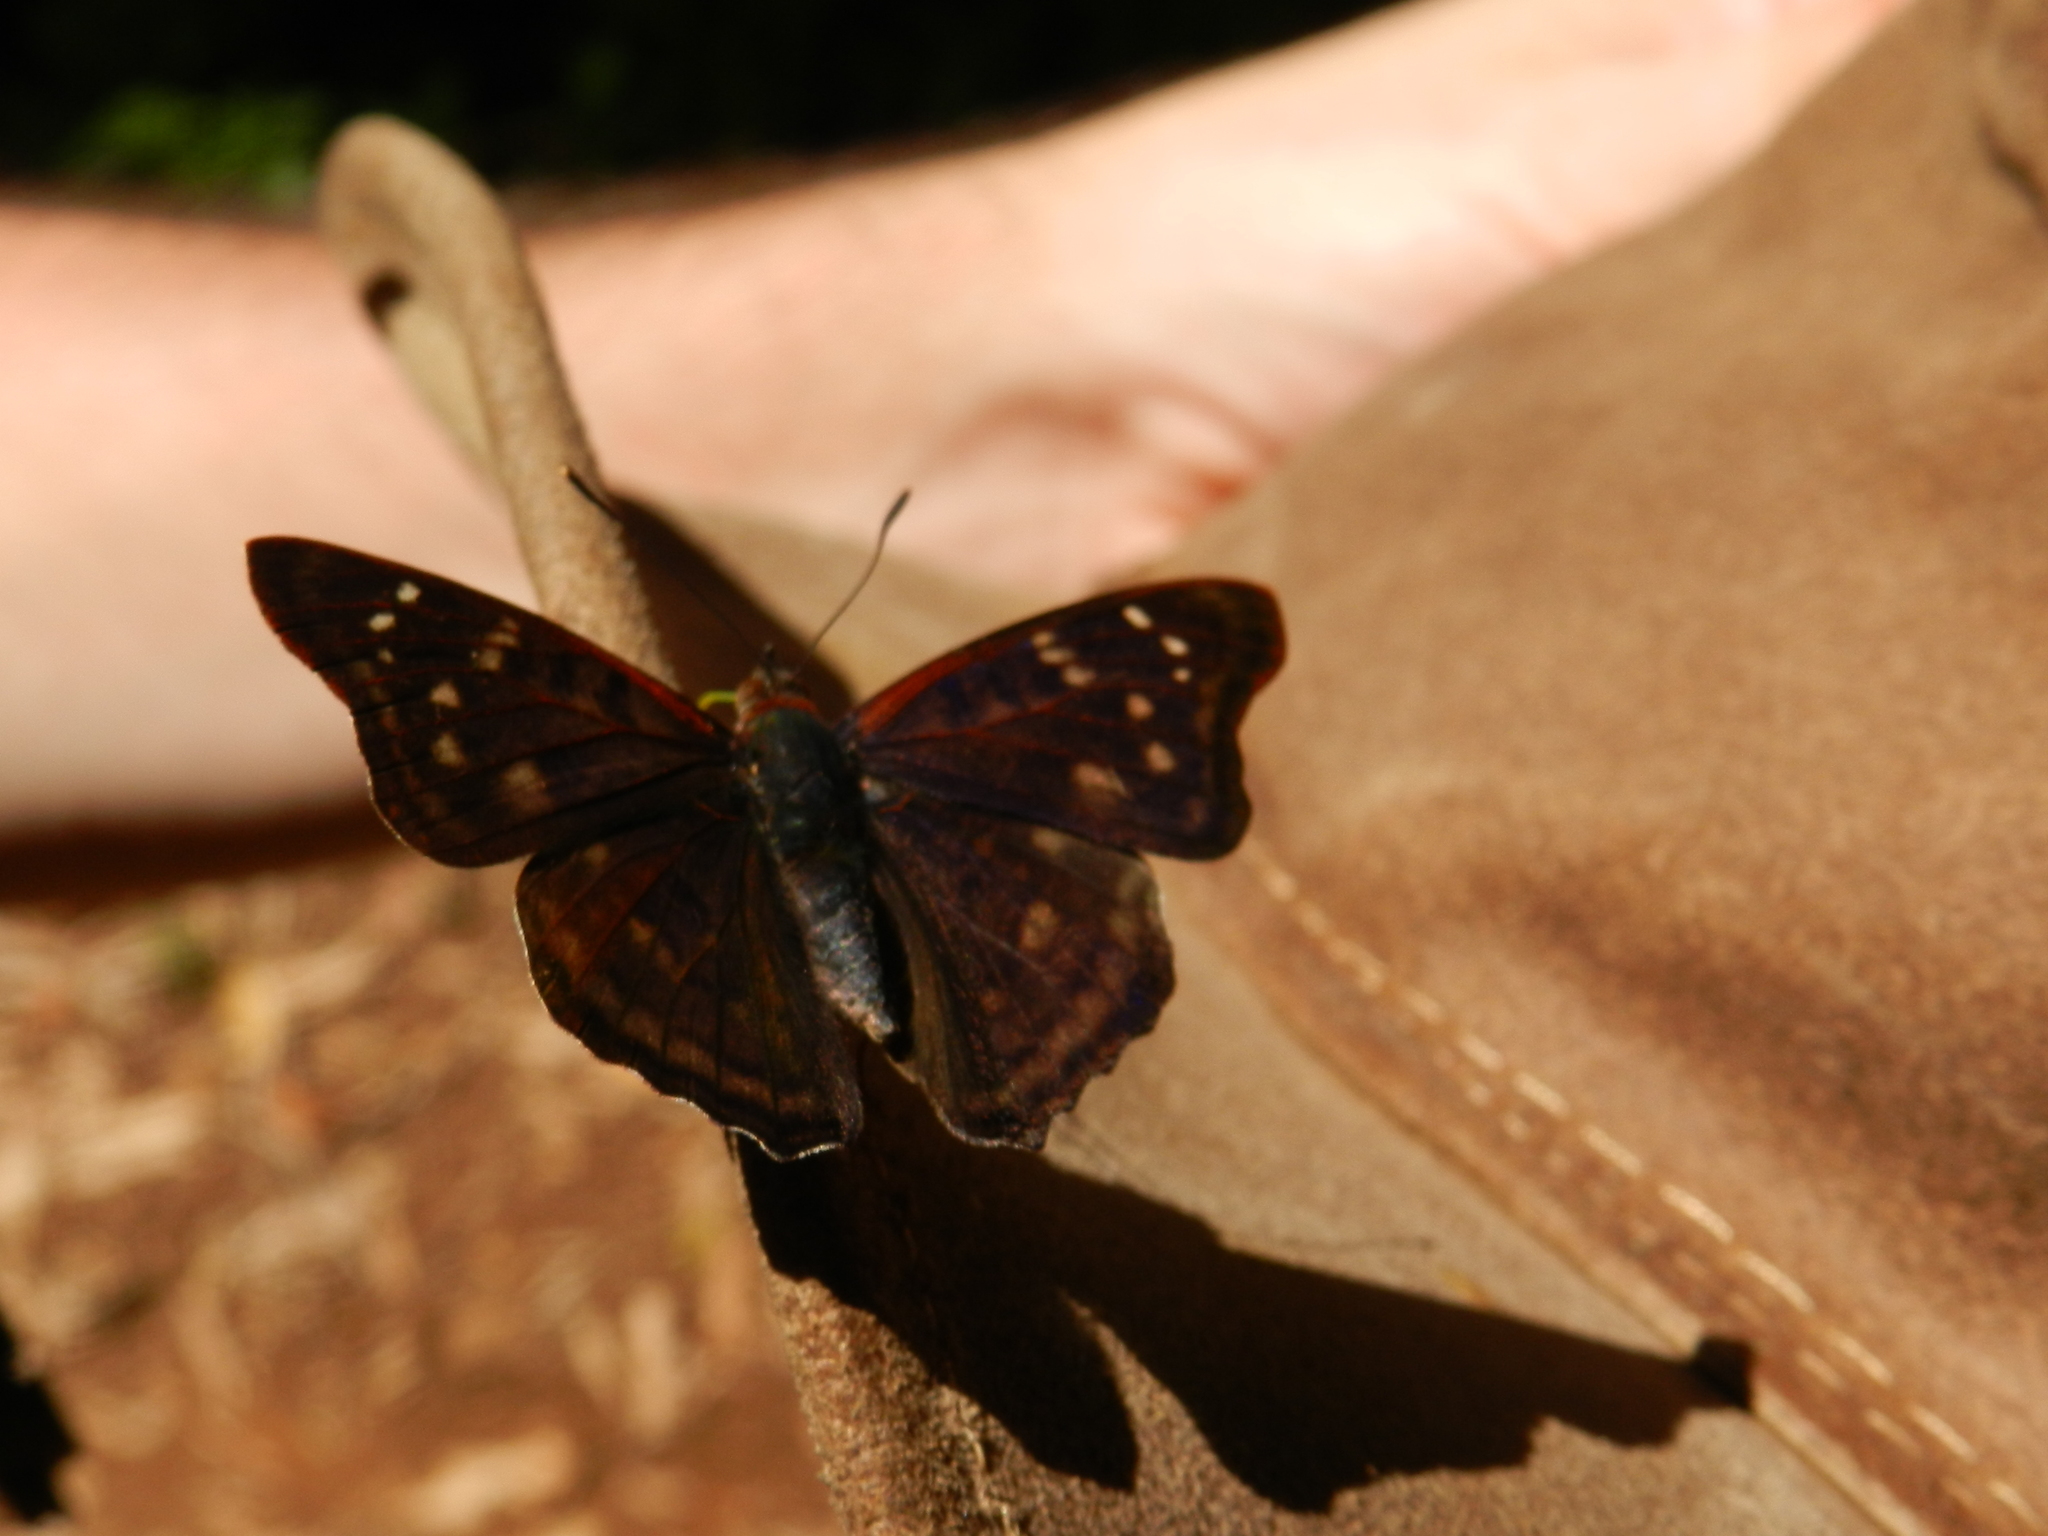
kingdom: Animalia
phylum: Arthropoda
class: Insecta
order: Lepidoptera
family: Nymphalidae
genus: Doxocopa
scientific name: Doxocopa zunilda
